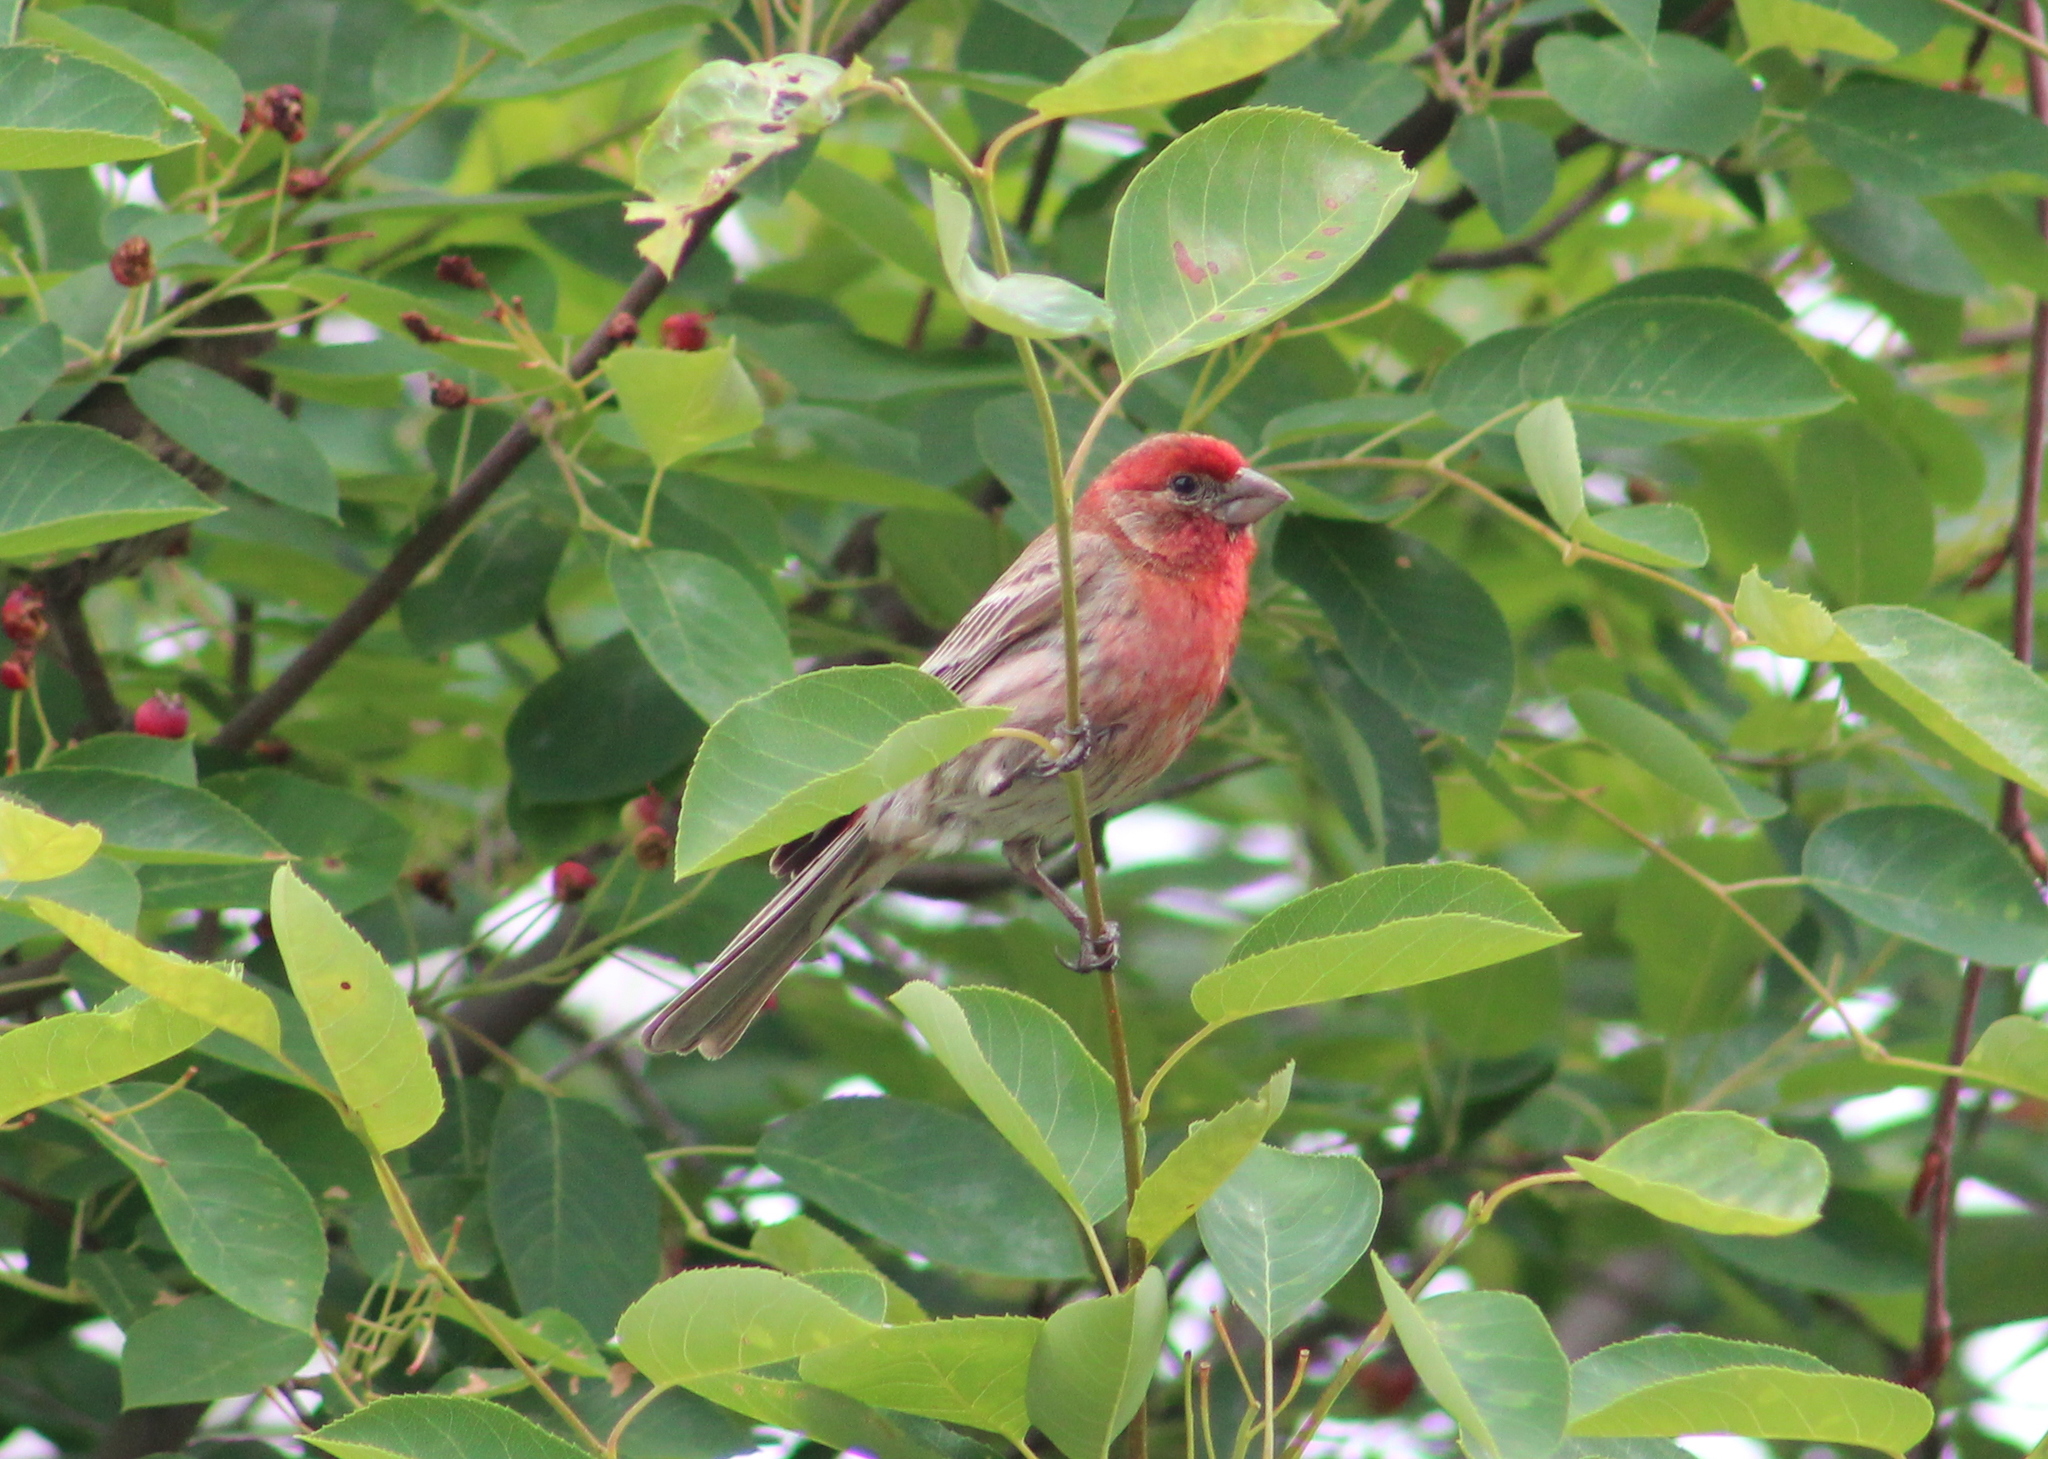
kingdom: Animalia
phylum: Chordata
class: Aves
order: Passeriformes
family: Fringillidae
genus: Haemorhous
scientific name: Haemorhous mexicanus
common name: House finch
